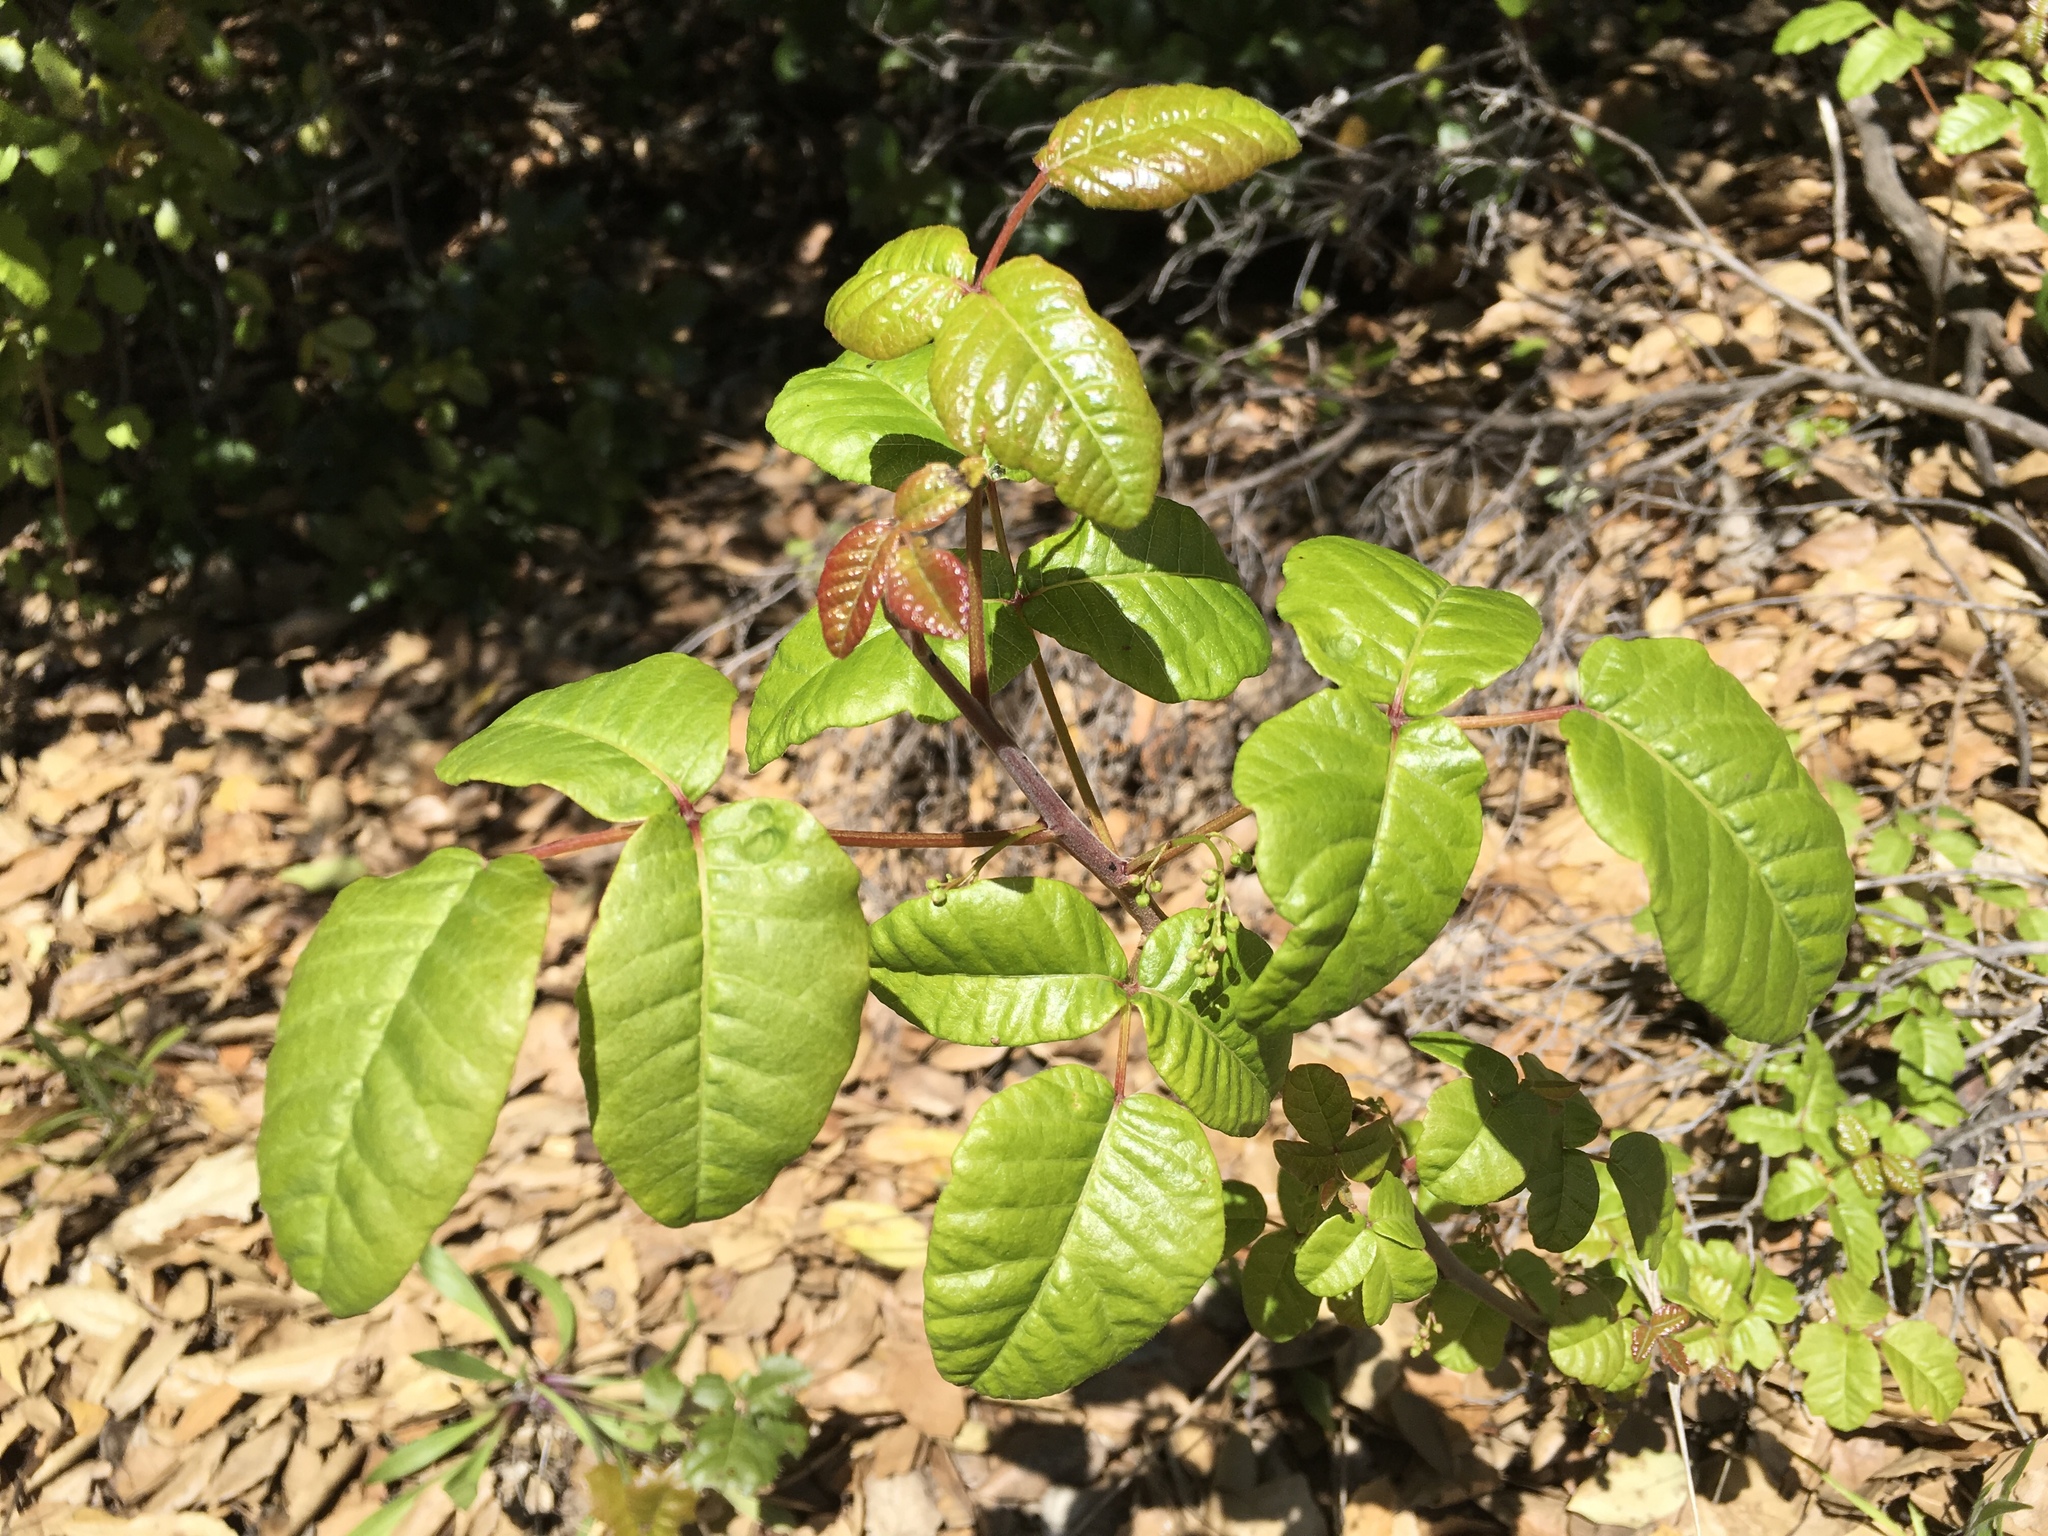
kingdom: Plantae
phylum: Tracheophyta
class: Magnoliopsida
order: Sapindales
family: Anacardiaceae
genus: Toxicodendron
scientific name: Toxicodendron diversilobum
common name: Pacific poison-oak
